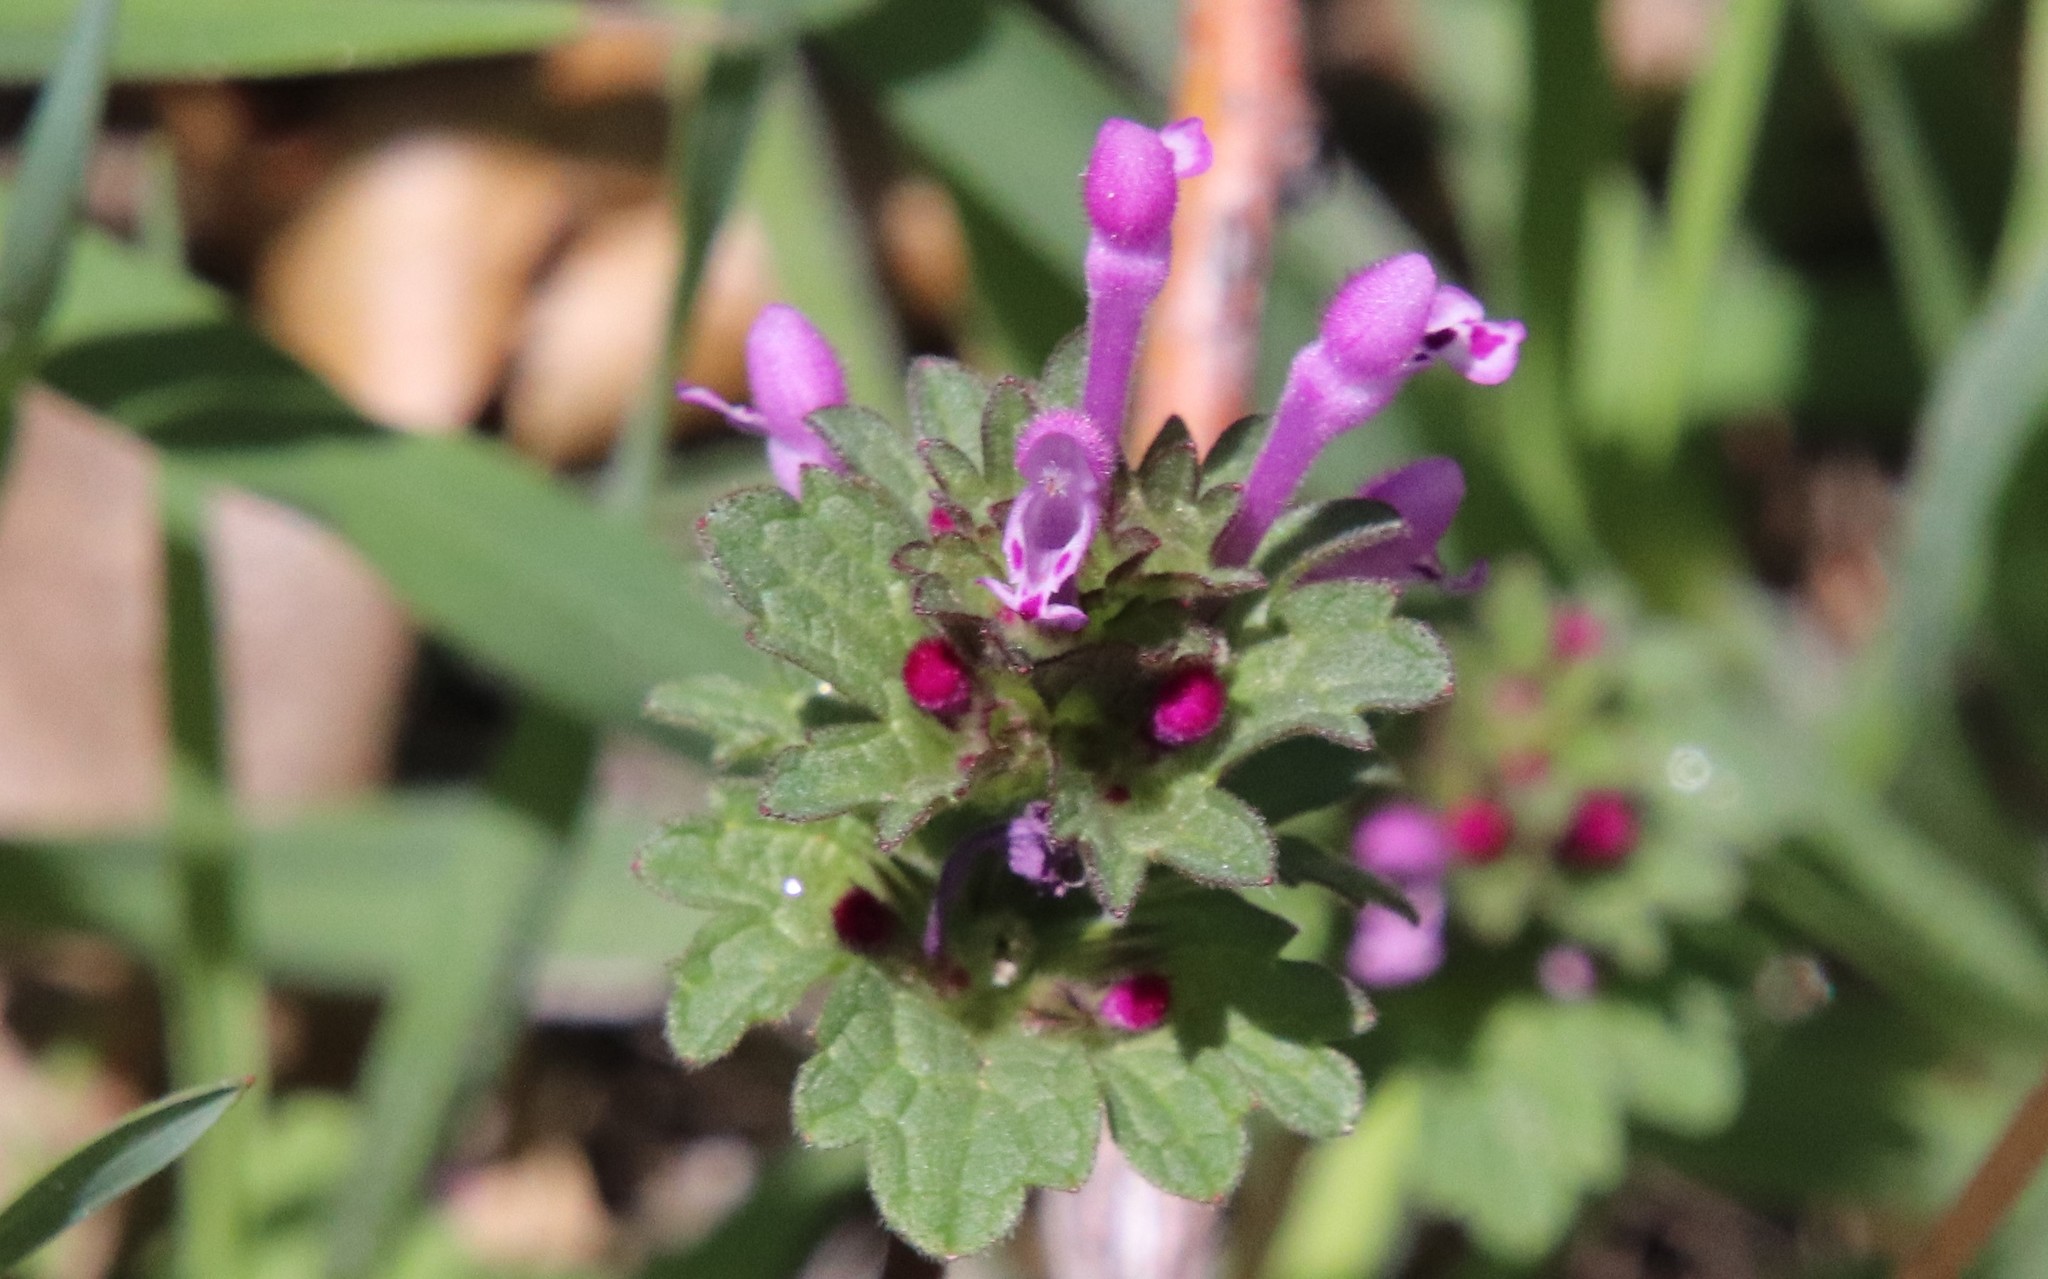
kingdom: Plantae
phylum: Tracheophyta
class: Magnoliopsida
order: Lamiales
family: Lamiaceae
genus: Lamium
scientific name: Lamium amplexicaule
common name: Henbit dead-nettle
